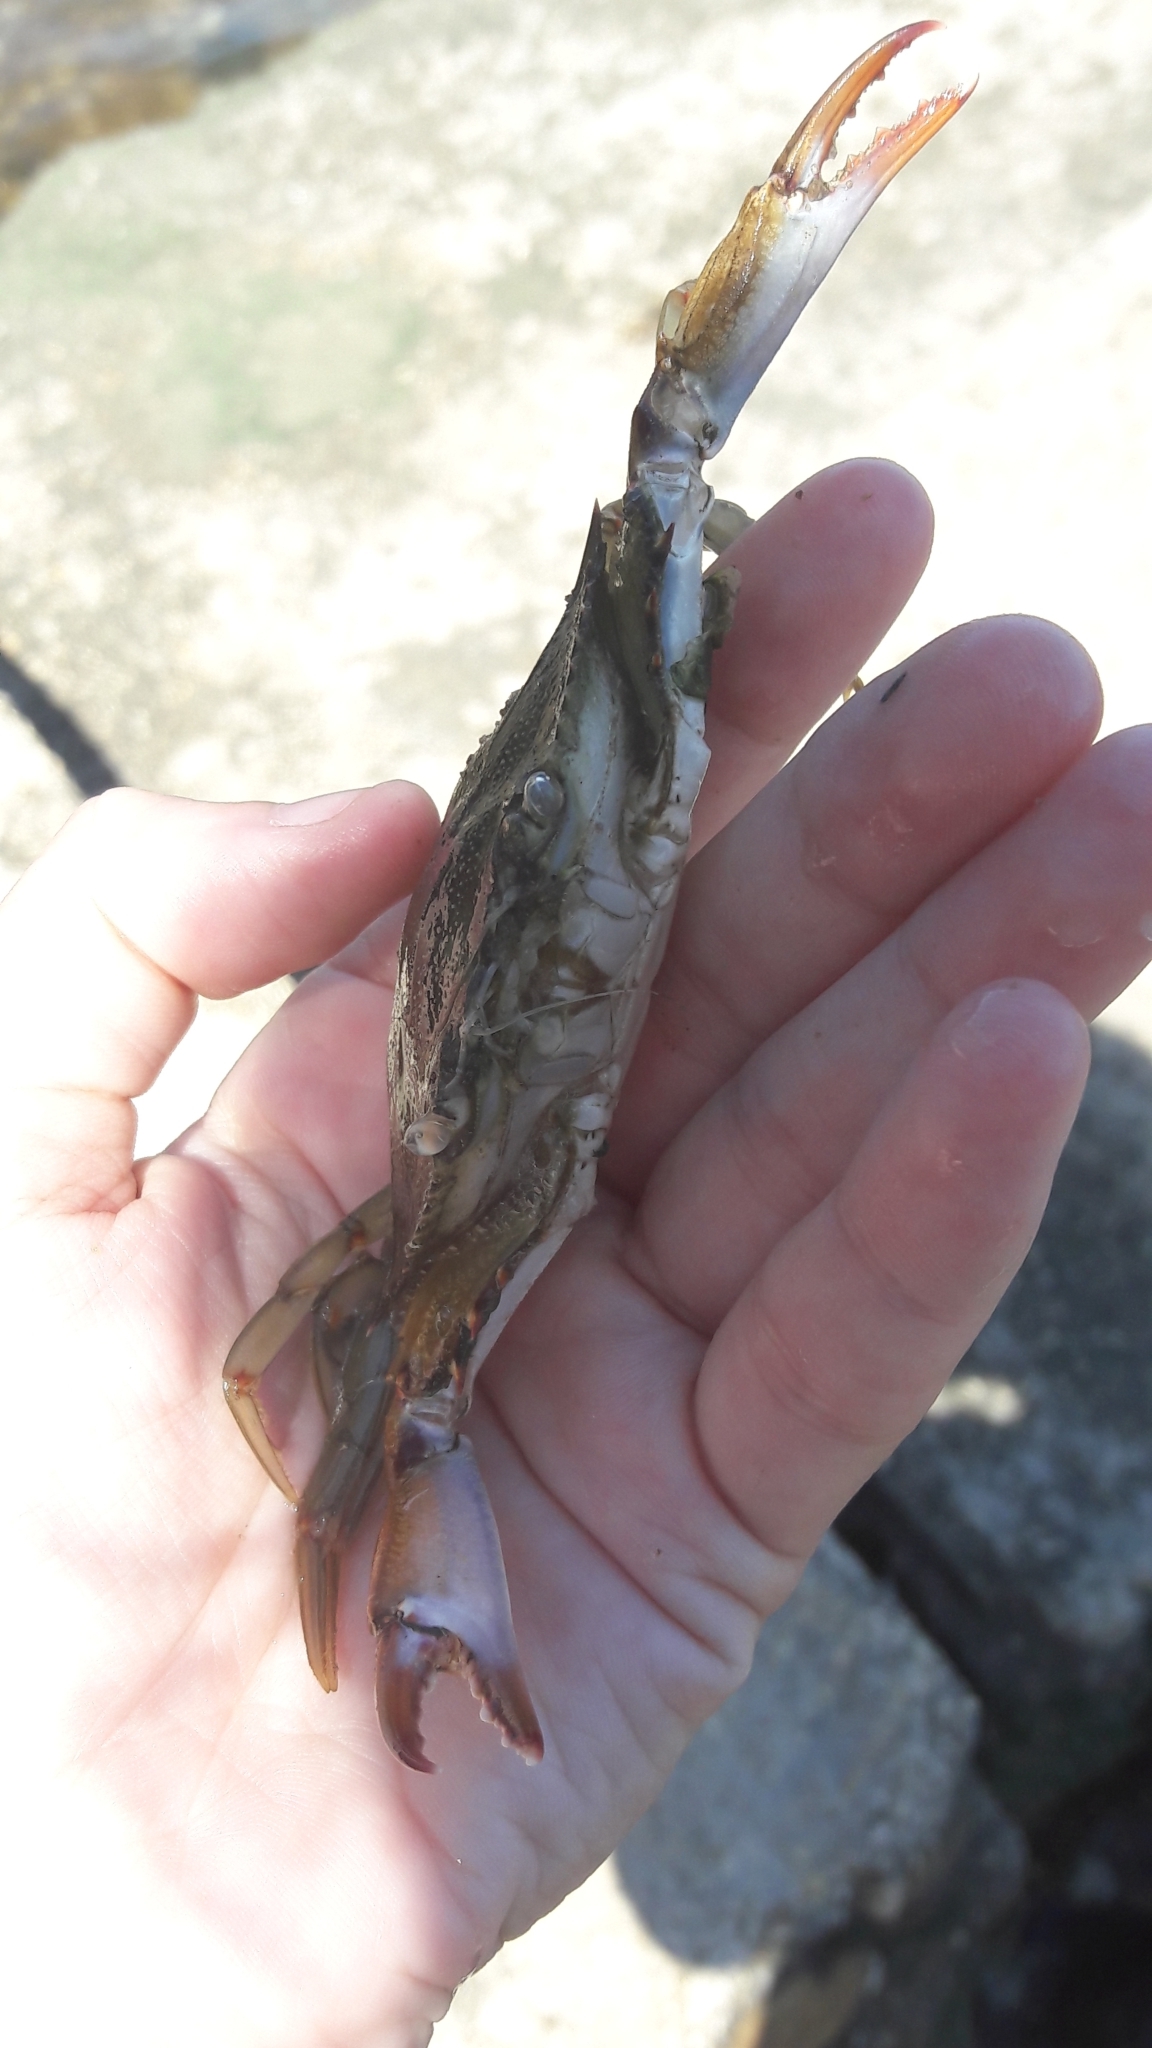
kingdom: Animalia
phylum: Arthropoda
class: Malacostraca
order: Decapoda
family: Portunidae
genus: Callinectes
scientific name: Callinectes sapidus
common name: Blue crab
